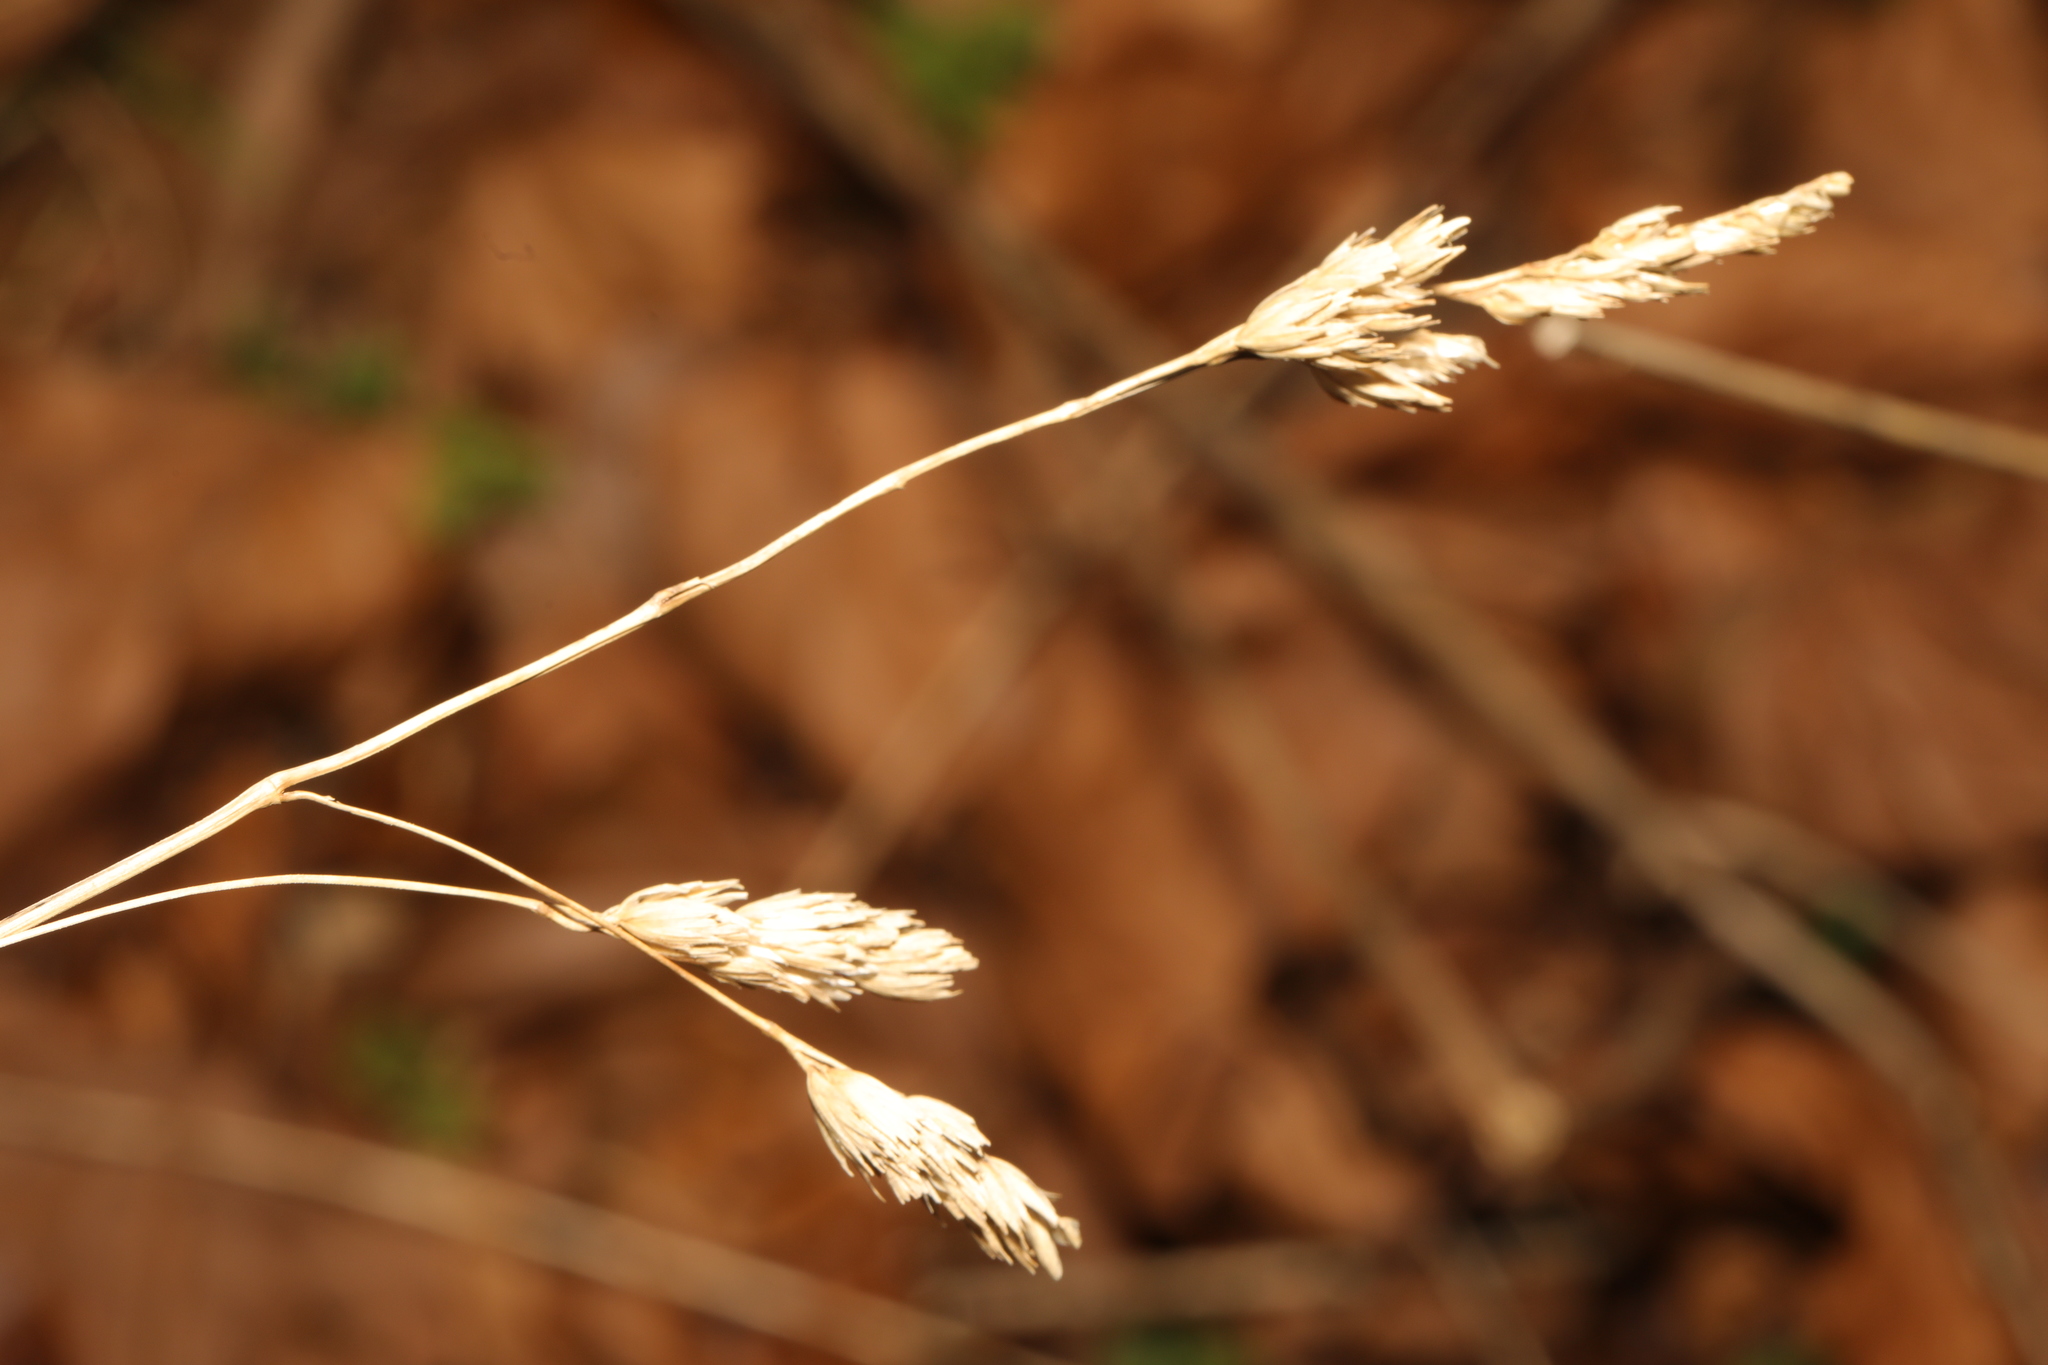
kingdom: Plantae
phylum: Tracheophyta
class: Liliopsida
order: Poales
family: Poaceae
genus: Dactylis
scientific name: Dactylis glomerata
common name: Orchardgrass
